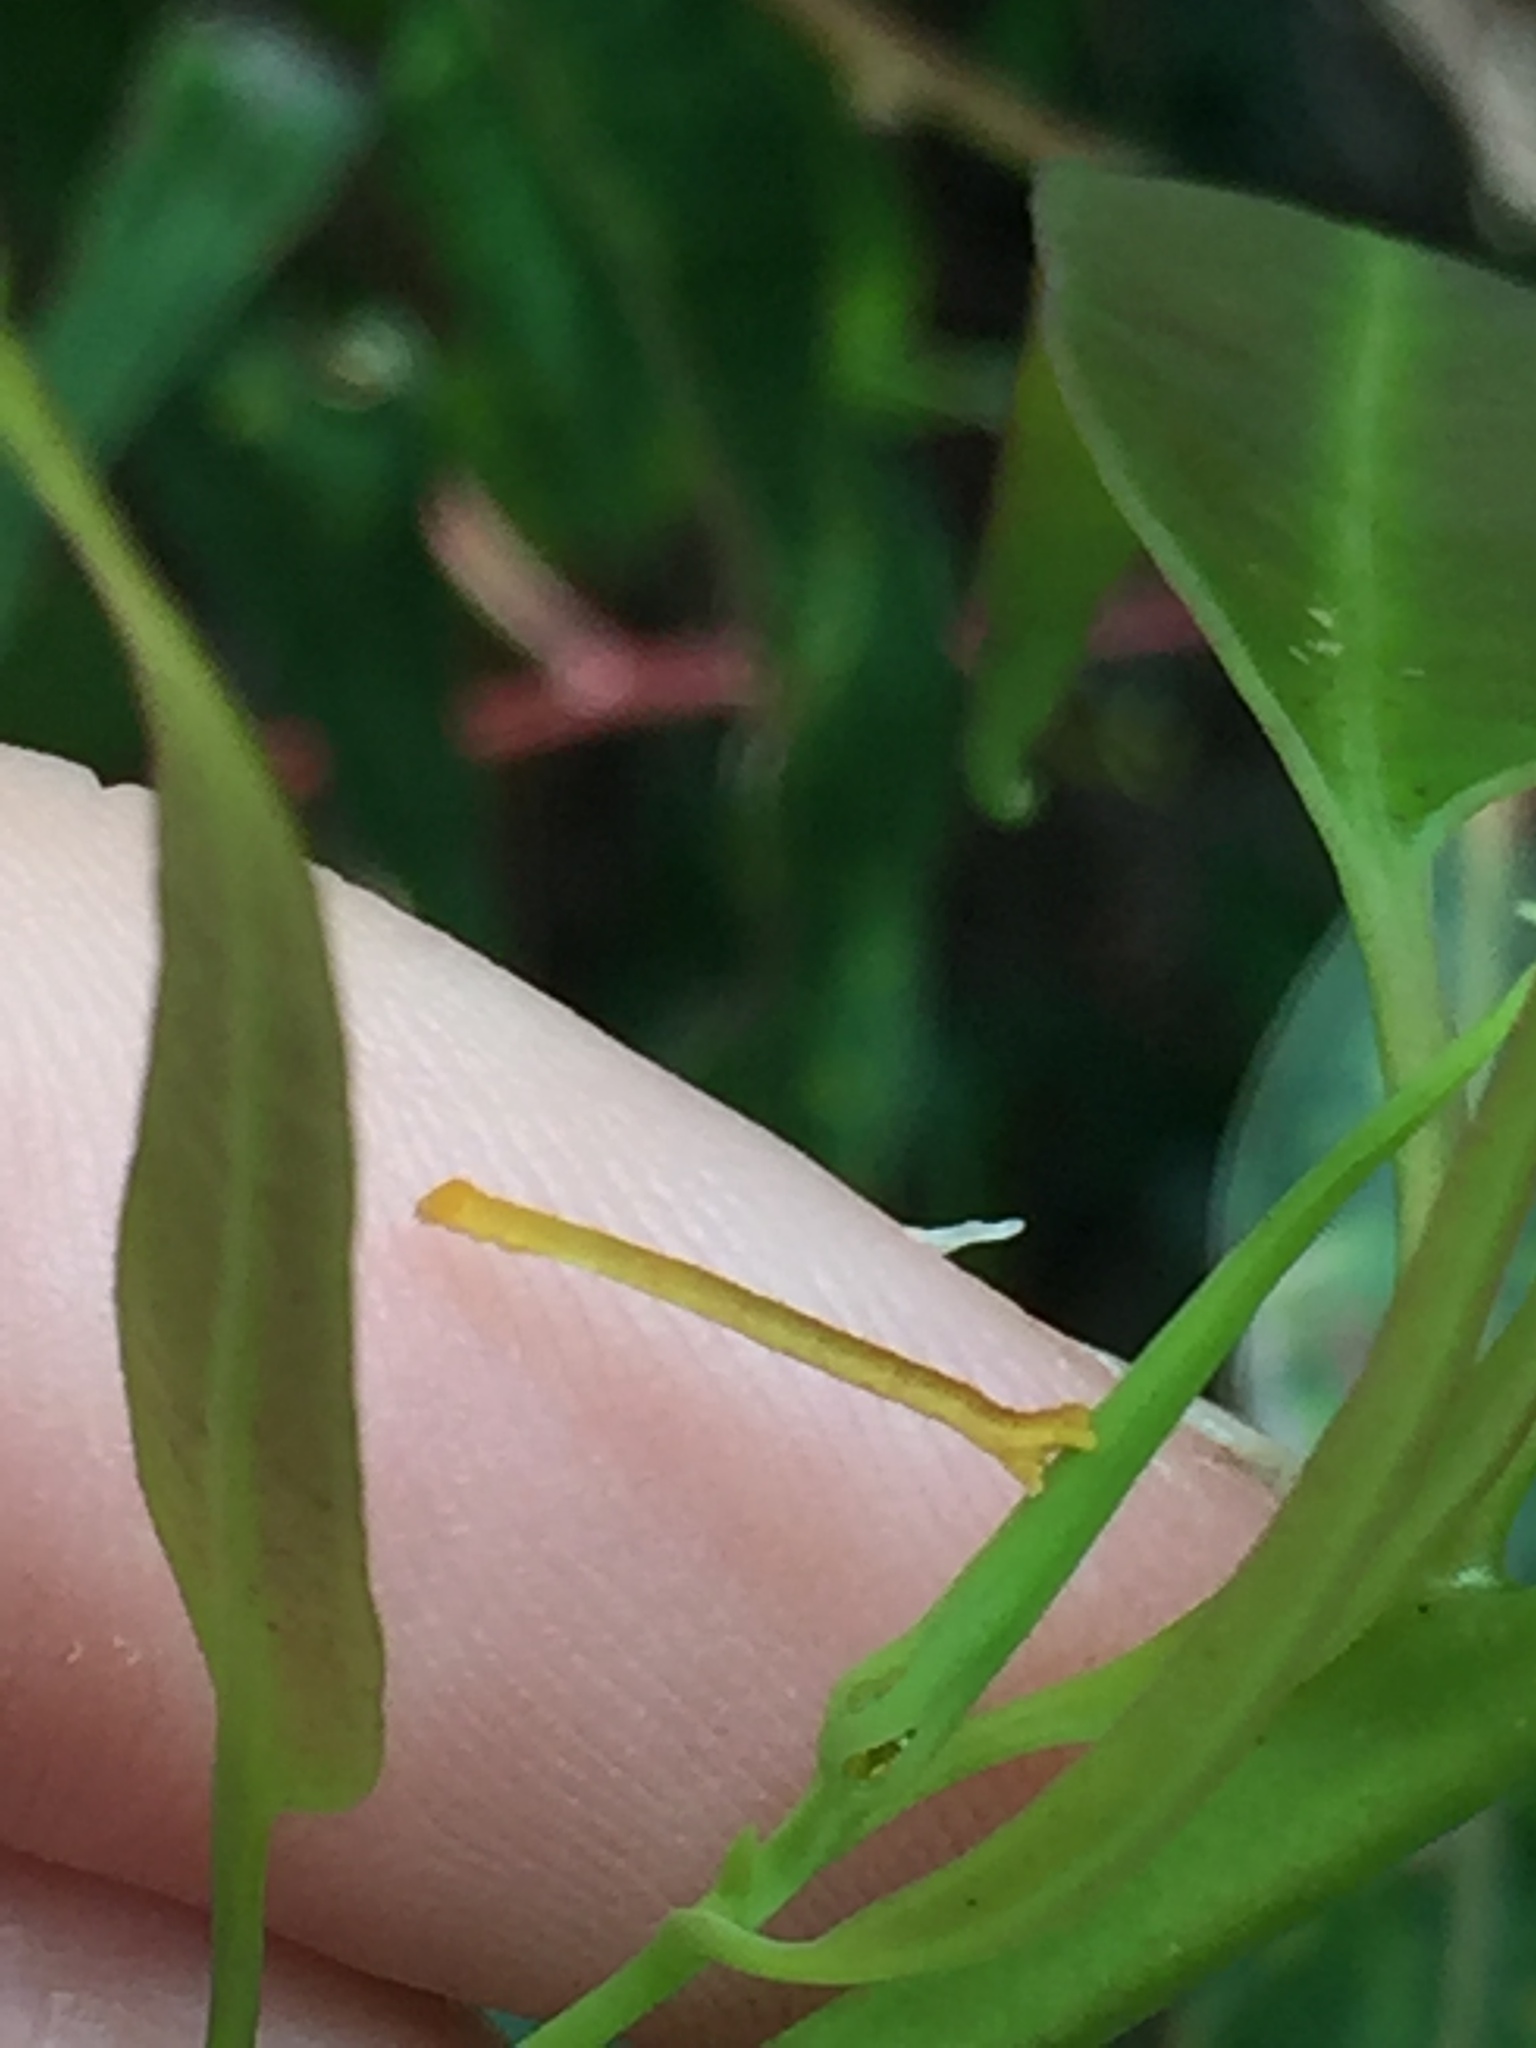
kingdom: Animalia
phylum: Arthropoda
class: Insecta
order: Lepidoptera
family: Geometridae
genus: Cyclophora
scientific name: Cyclophora obstataria
